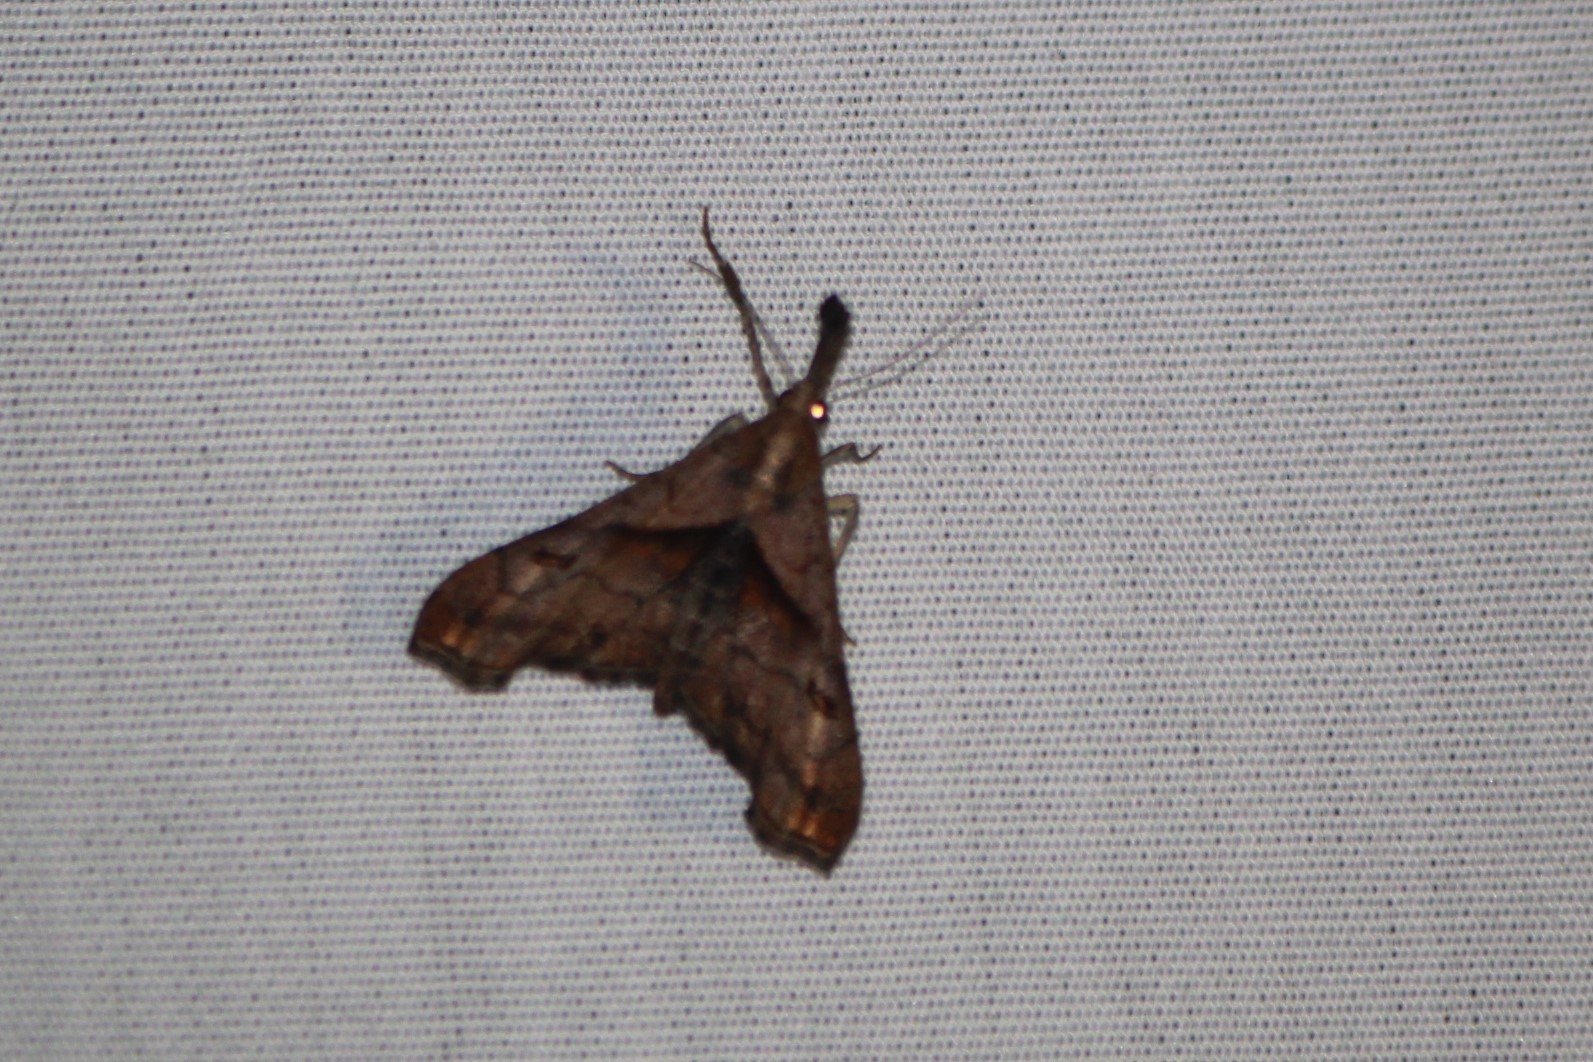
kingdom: Animalia
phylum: Arthropoda
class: Insecta
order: Lepidoptera
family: Erebidae
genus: Palthis
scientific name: Palthis angulalis
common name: Dark-spotted palthis moth
